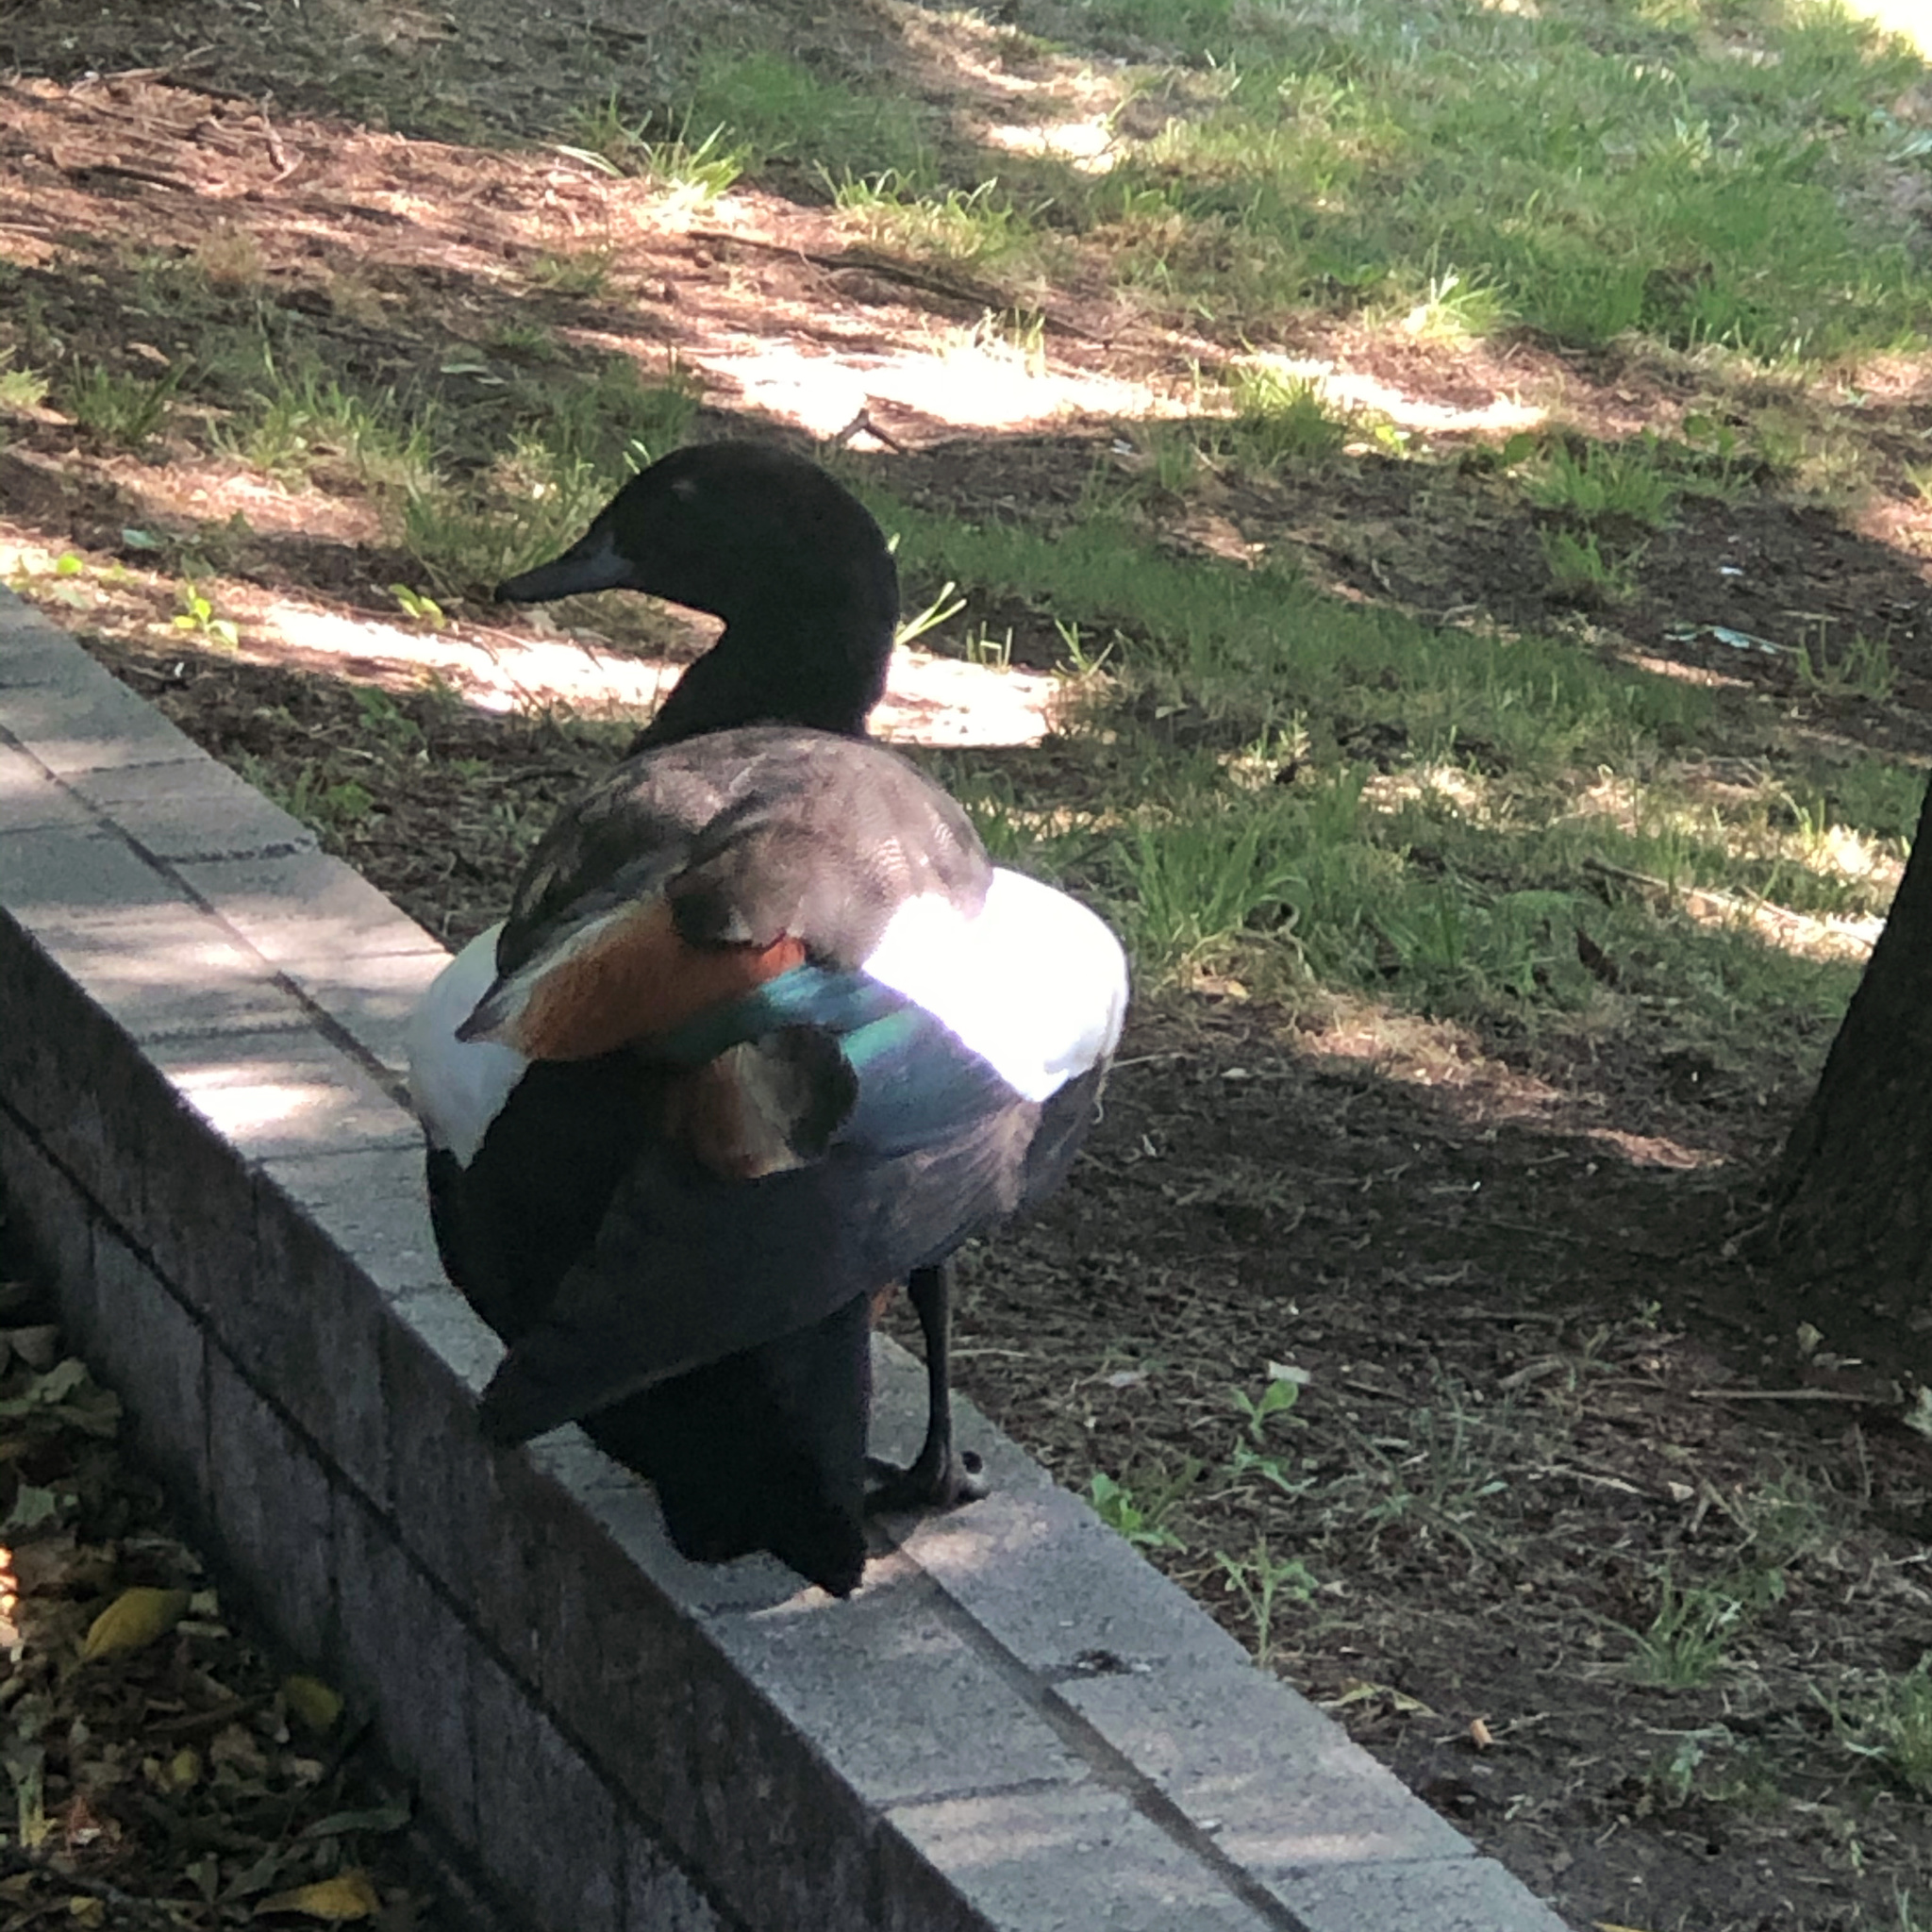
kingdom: Animalia
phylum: Chordata
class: Aves
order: Anseriformes
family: Anatidae
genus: Tadorna
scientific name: Tadorna variegata
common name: Paradise shelduck
